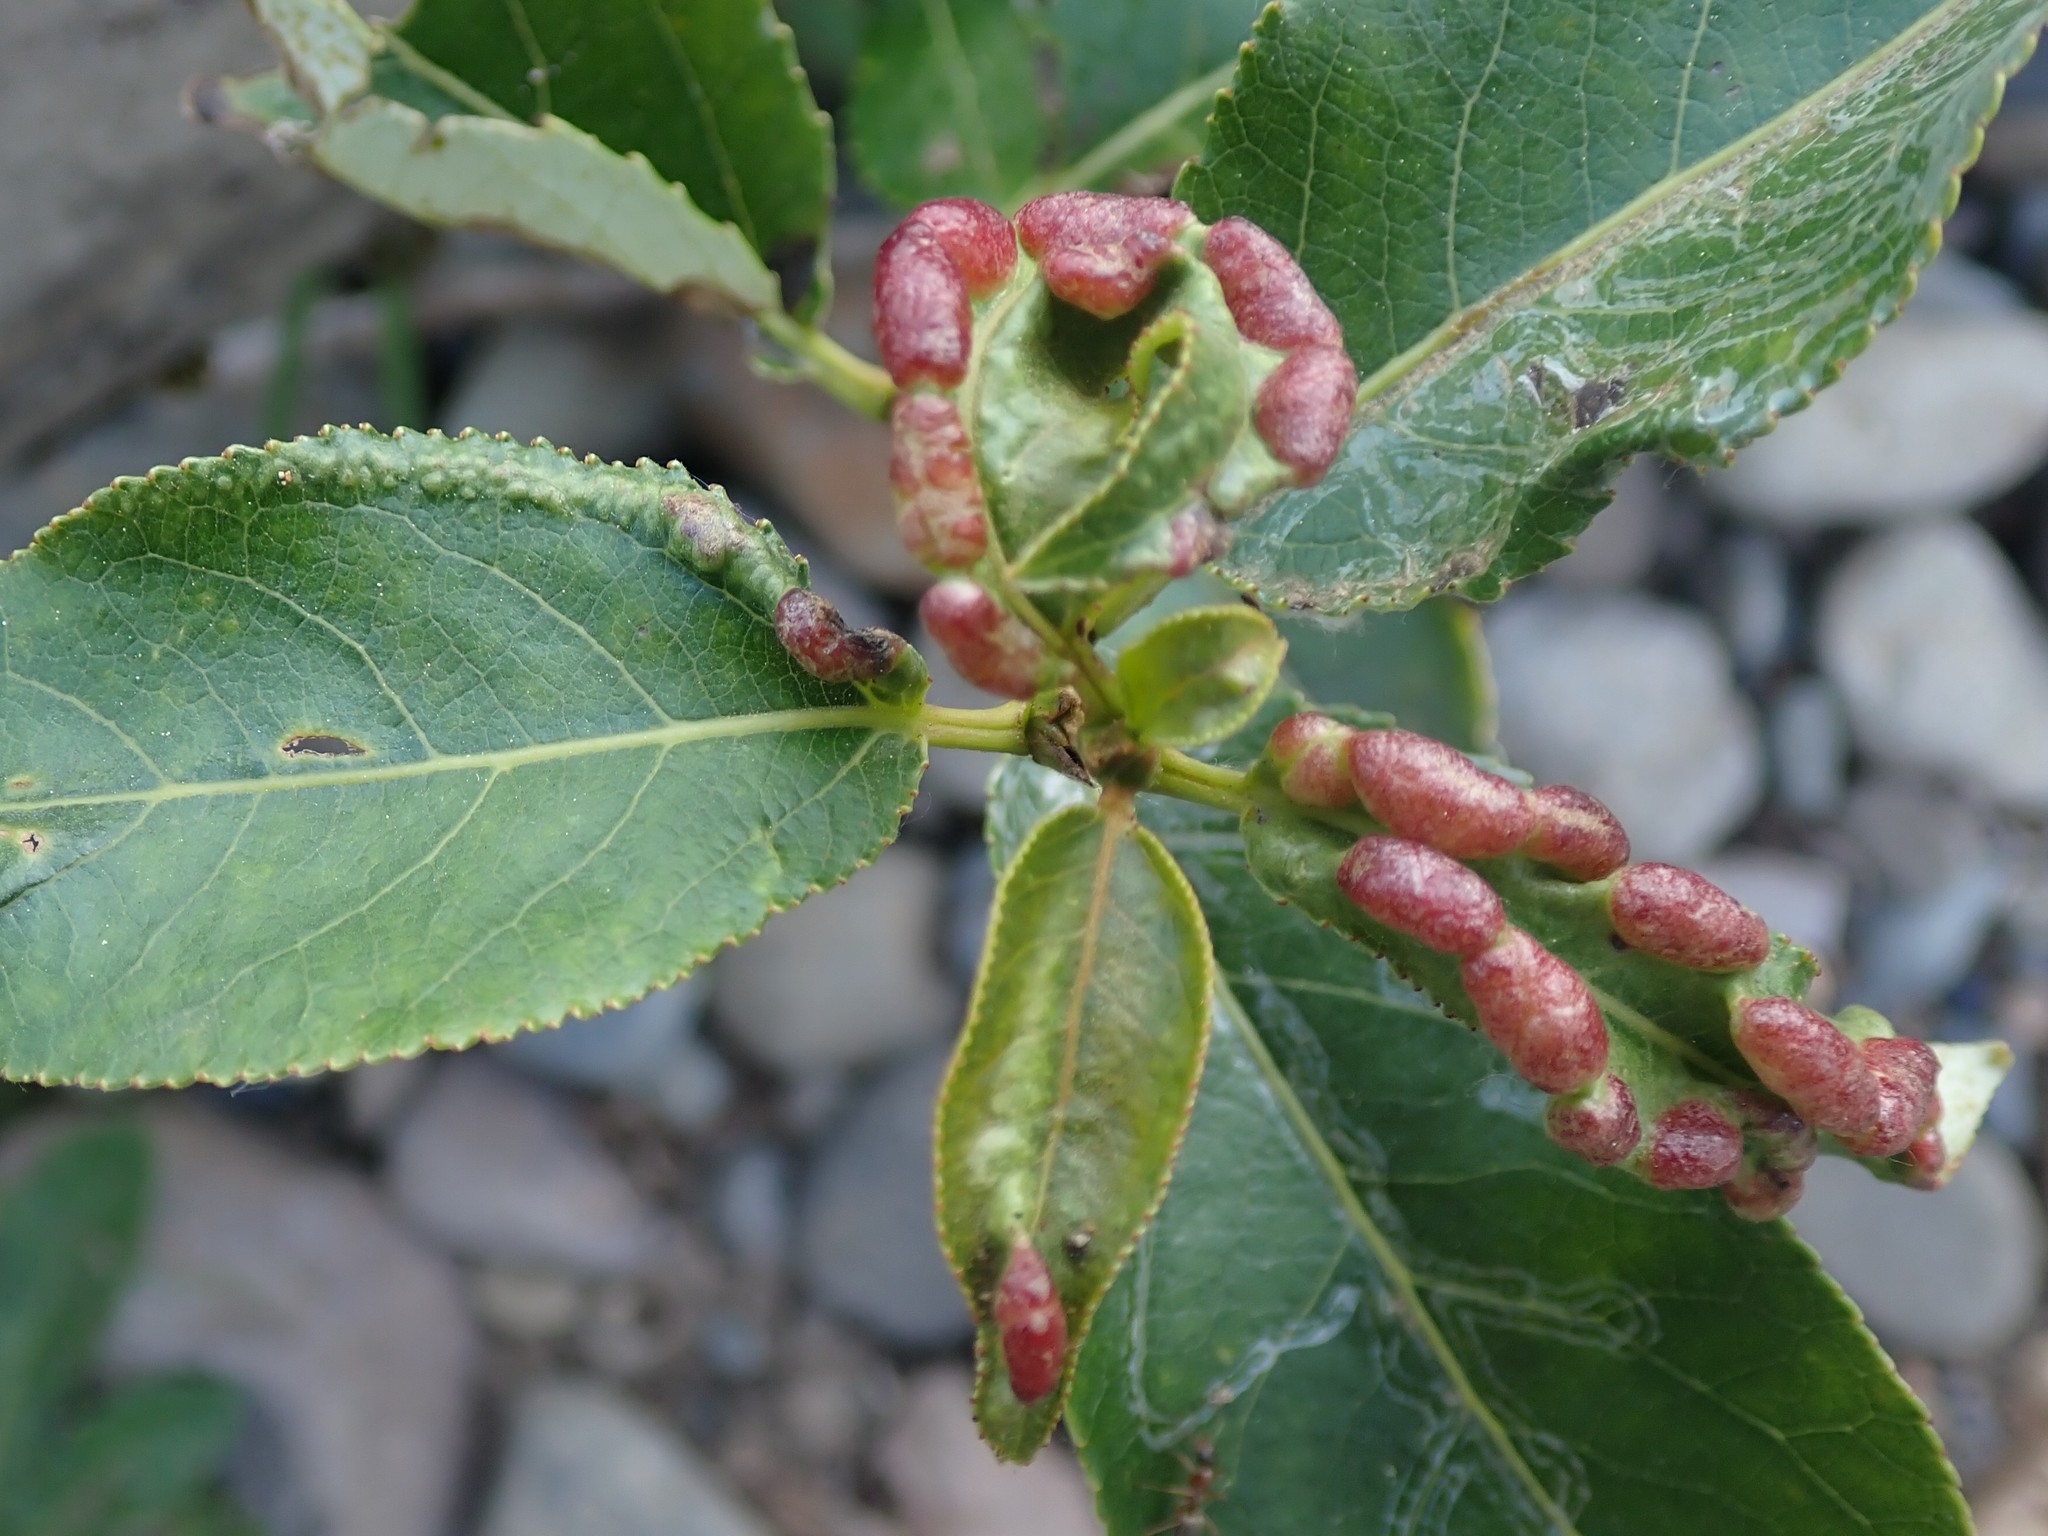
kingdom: Animalia
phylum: Arthropoda
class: Insecta
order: Hemiptera
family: Aphididae
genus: Thecabius
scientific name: Thecabius populimonilis
